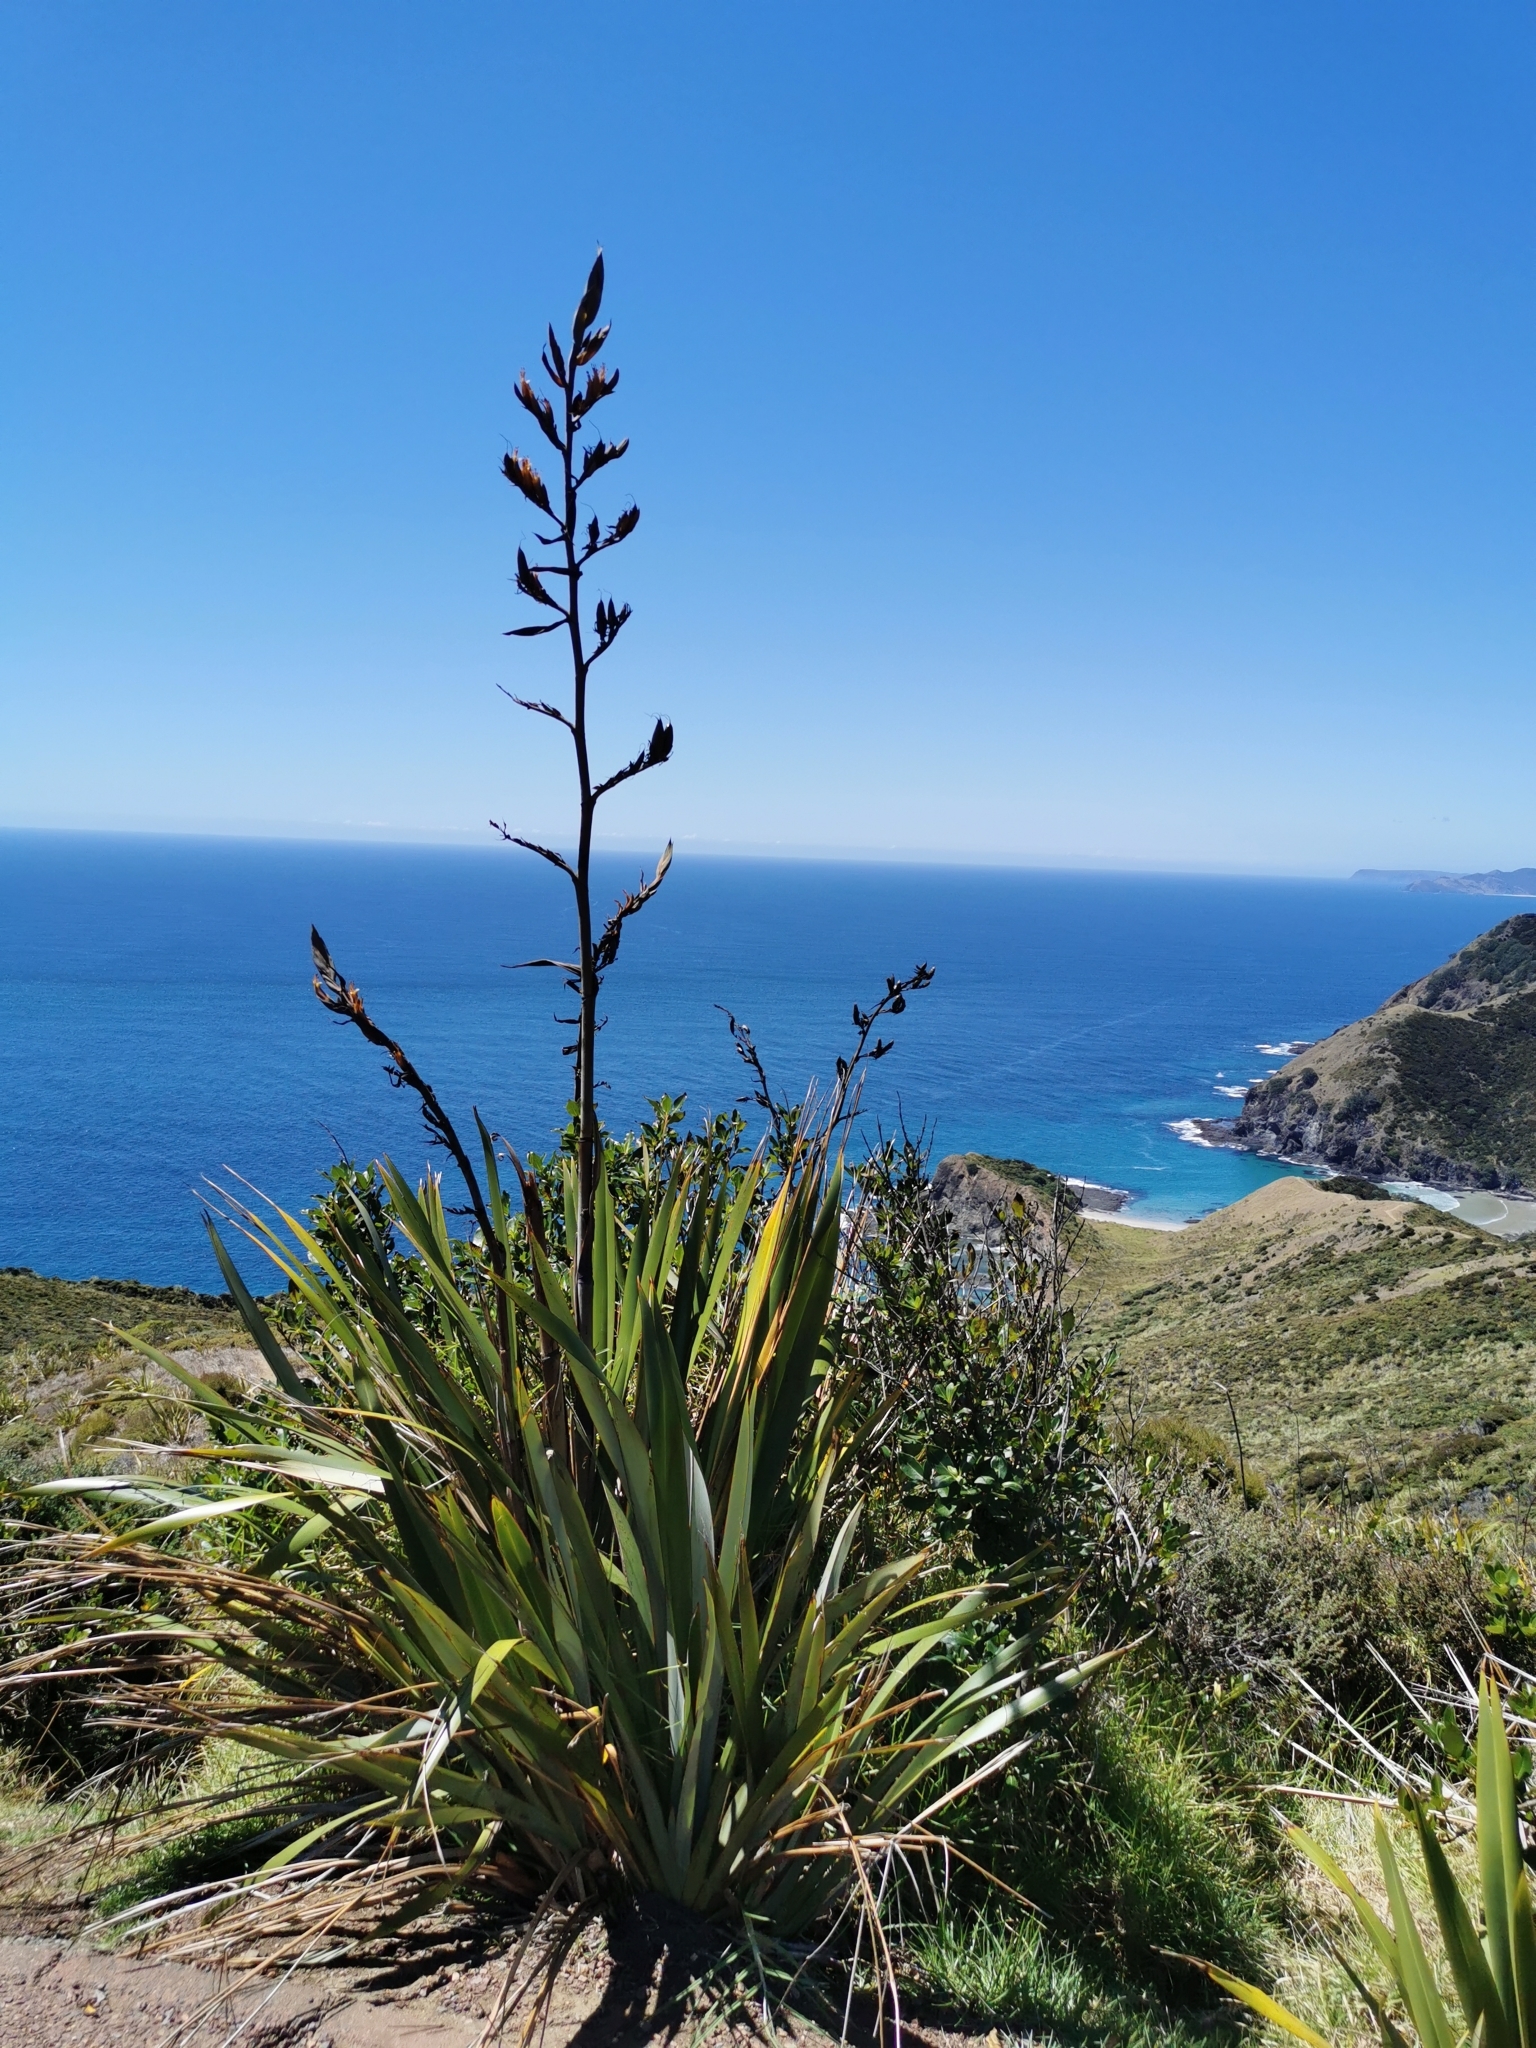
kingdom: Plantae
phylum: Tracheophyta
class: Liliopsida
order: Asparagales
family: Asphodelaceae
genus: Phormium
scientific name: Phormium tenax
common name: New zealand flax
